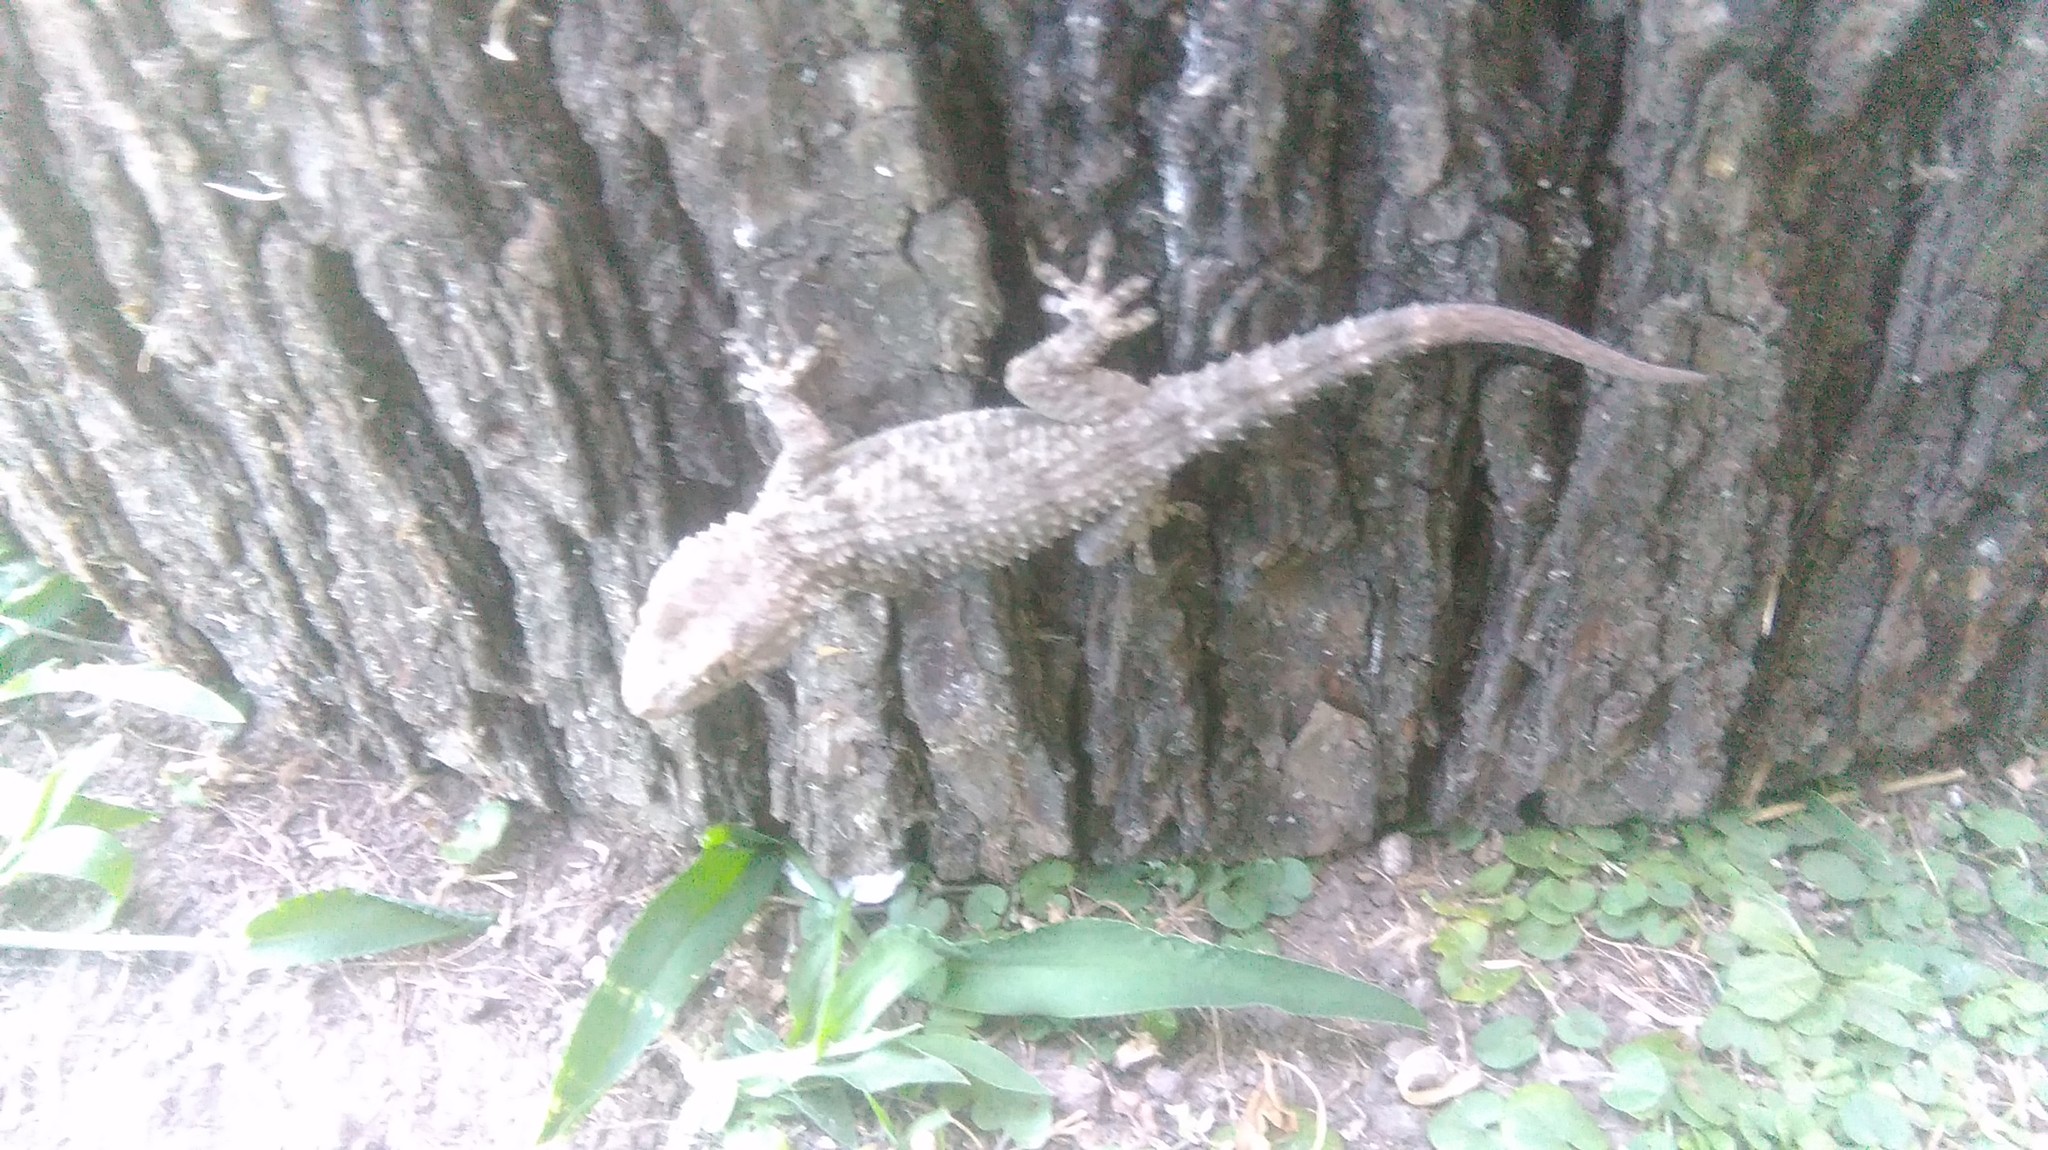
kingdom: Animalia
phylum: Chordata
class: Squamata
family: Phyllodactylidae
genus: Tarentola
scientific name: Tarentola mauritanica
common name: Moorish gecko
